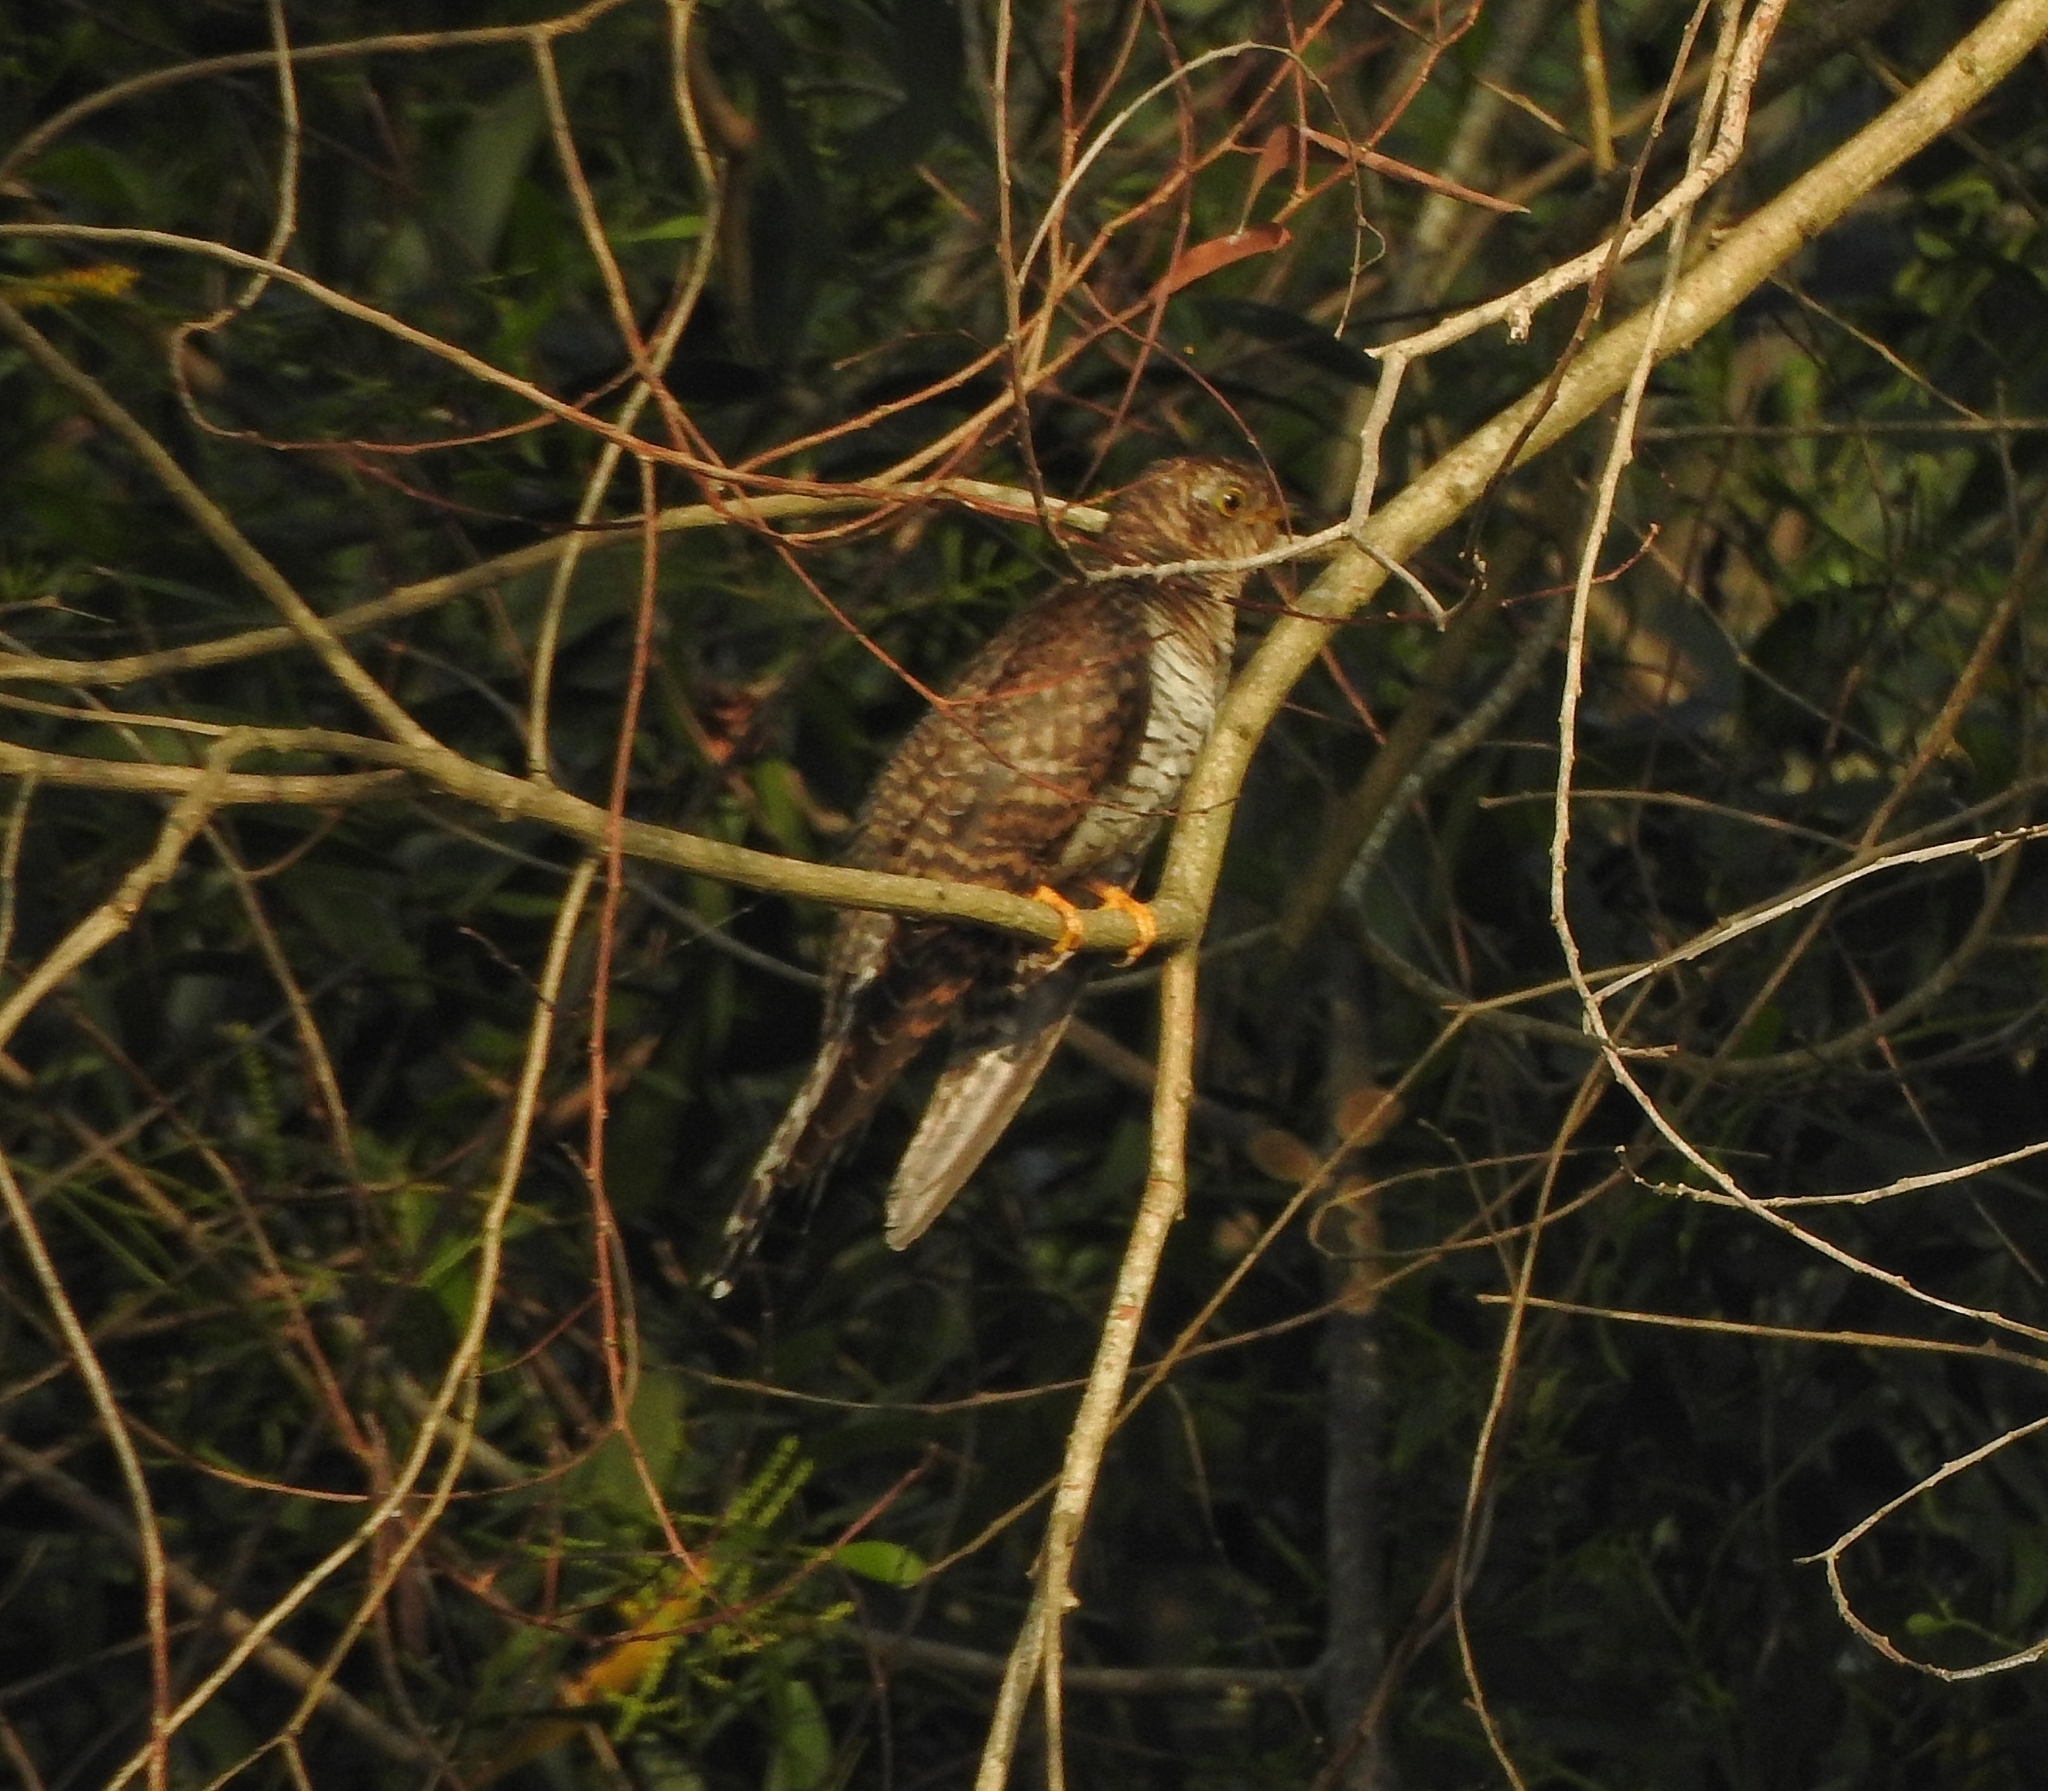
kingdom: Animalia
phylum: Chordata
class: Aves
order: Cuculiformes
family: Cuculidae
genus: Cuculus
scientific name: Cuculus canorus
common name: Common cuckoo
